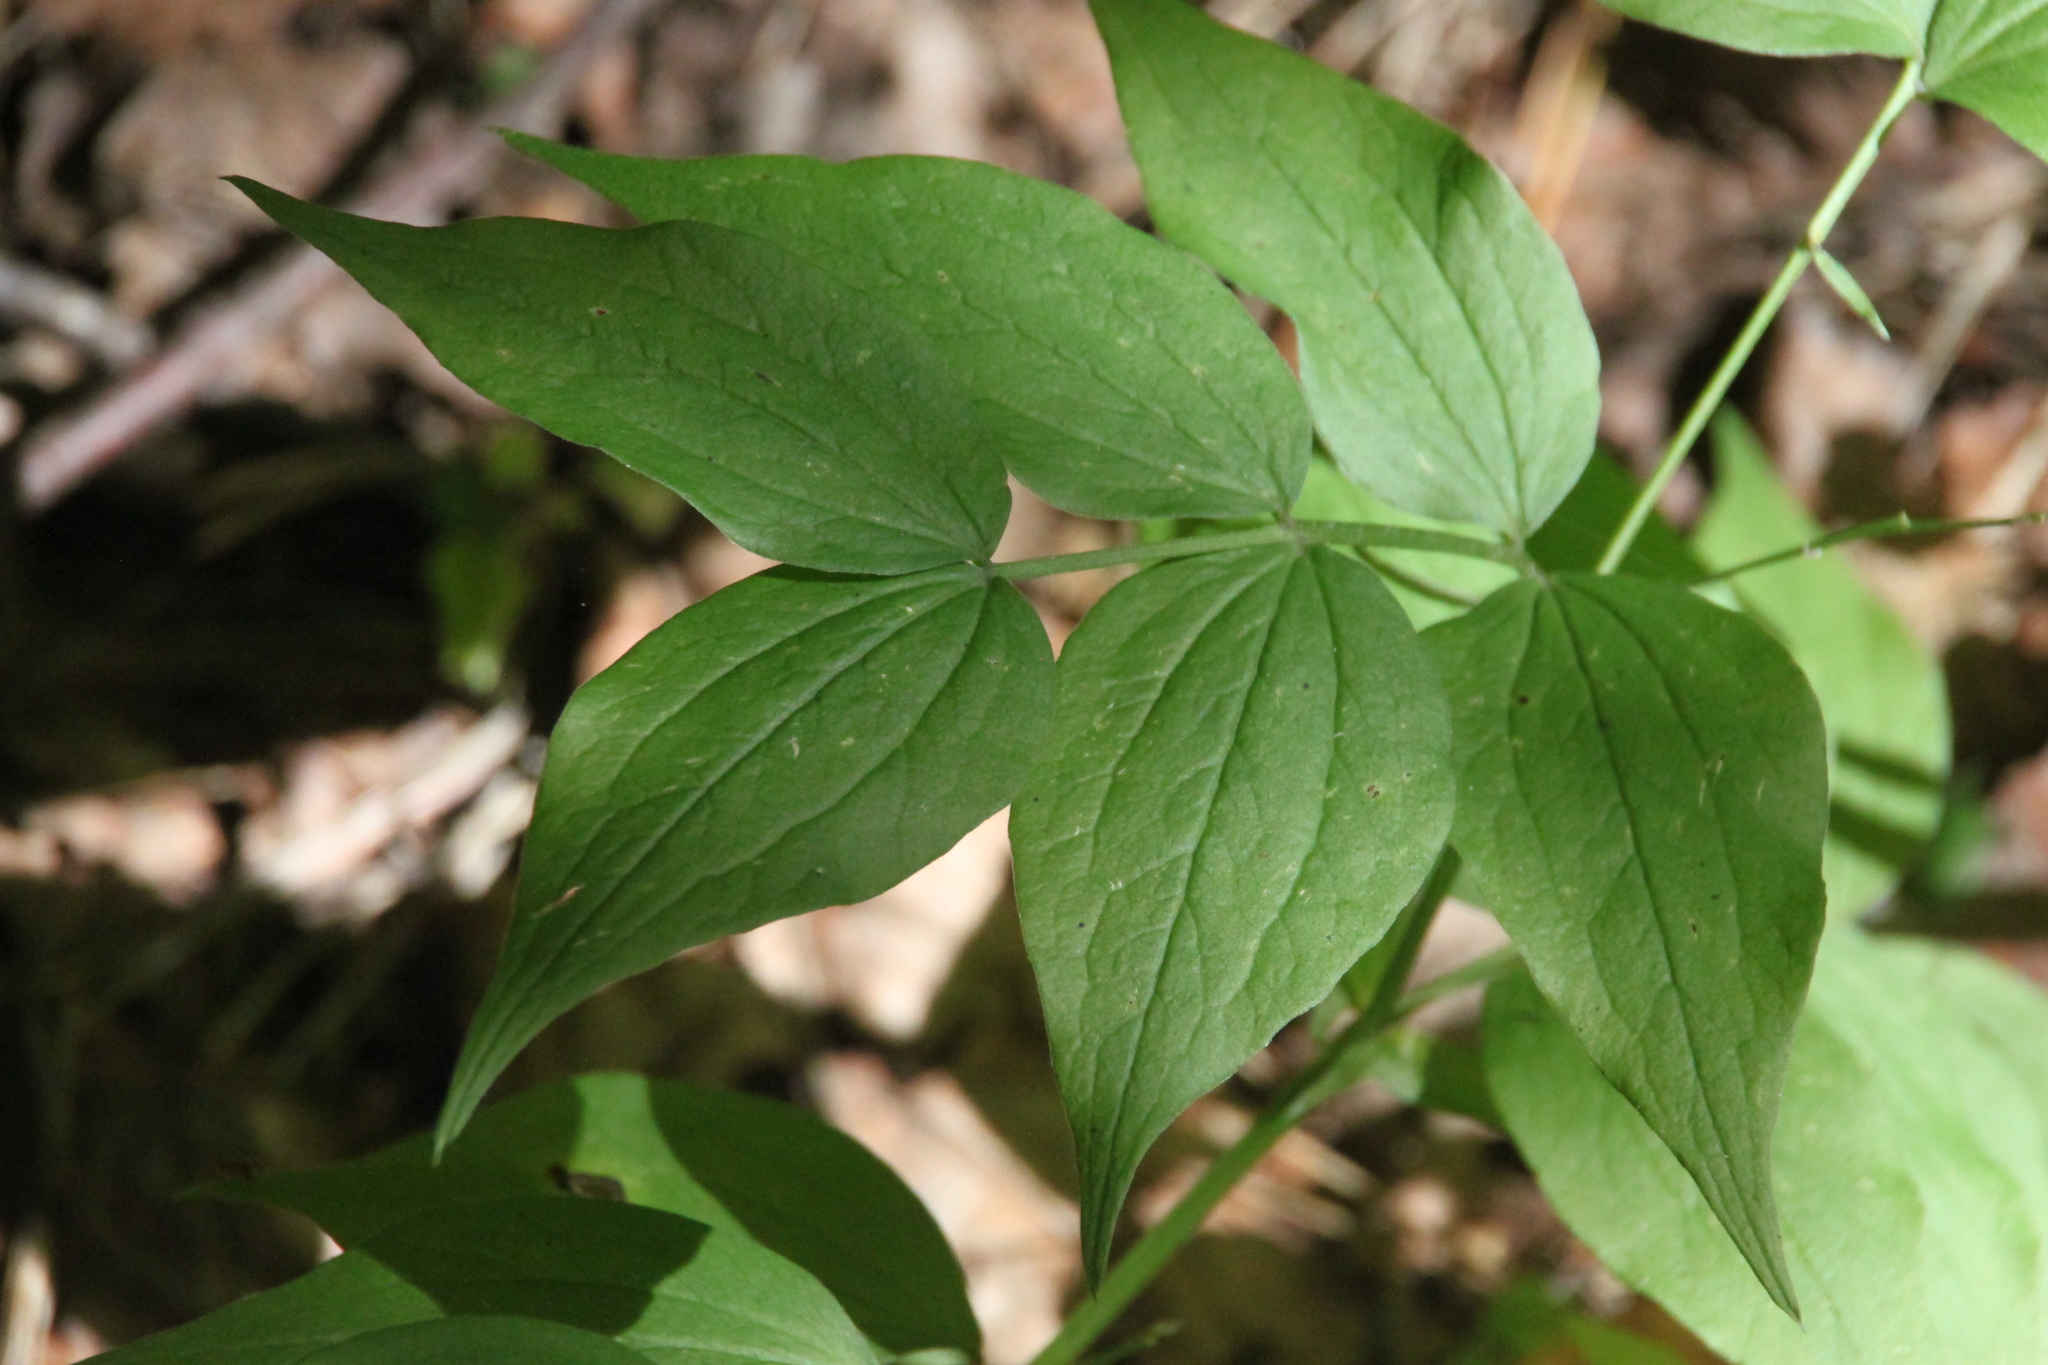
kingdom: Plantae
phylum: Tracheophyta
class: Magnoliopsida
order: Fabales
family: Fabaceae
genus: Lathyrus
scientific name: Lathyrus vernus
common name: Spring pea
